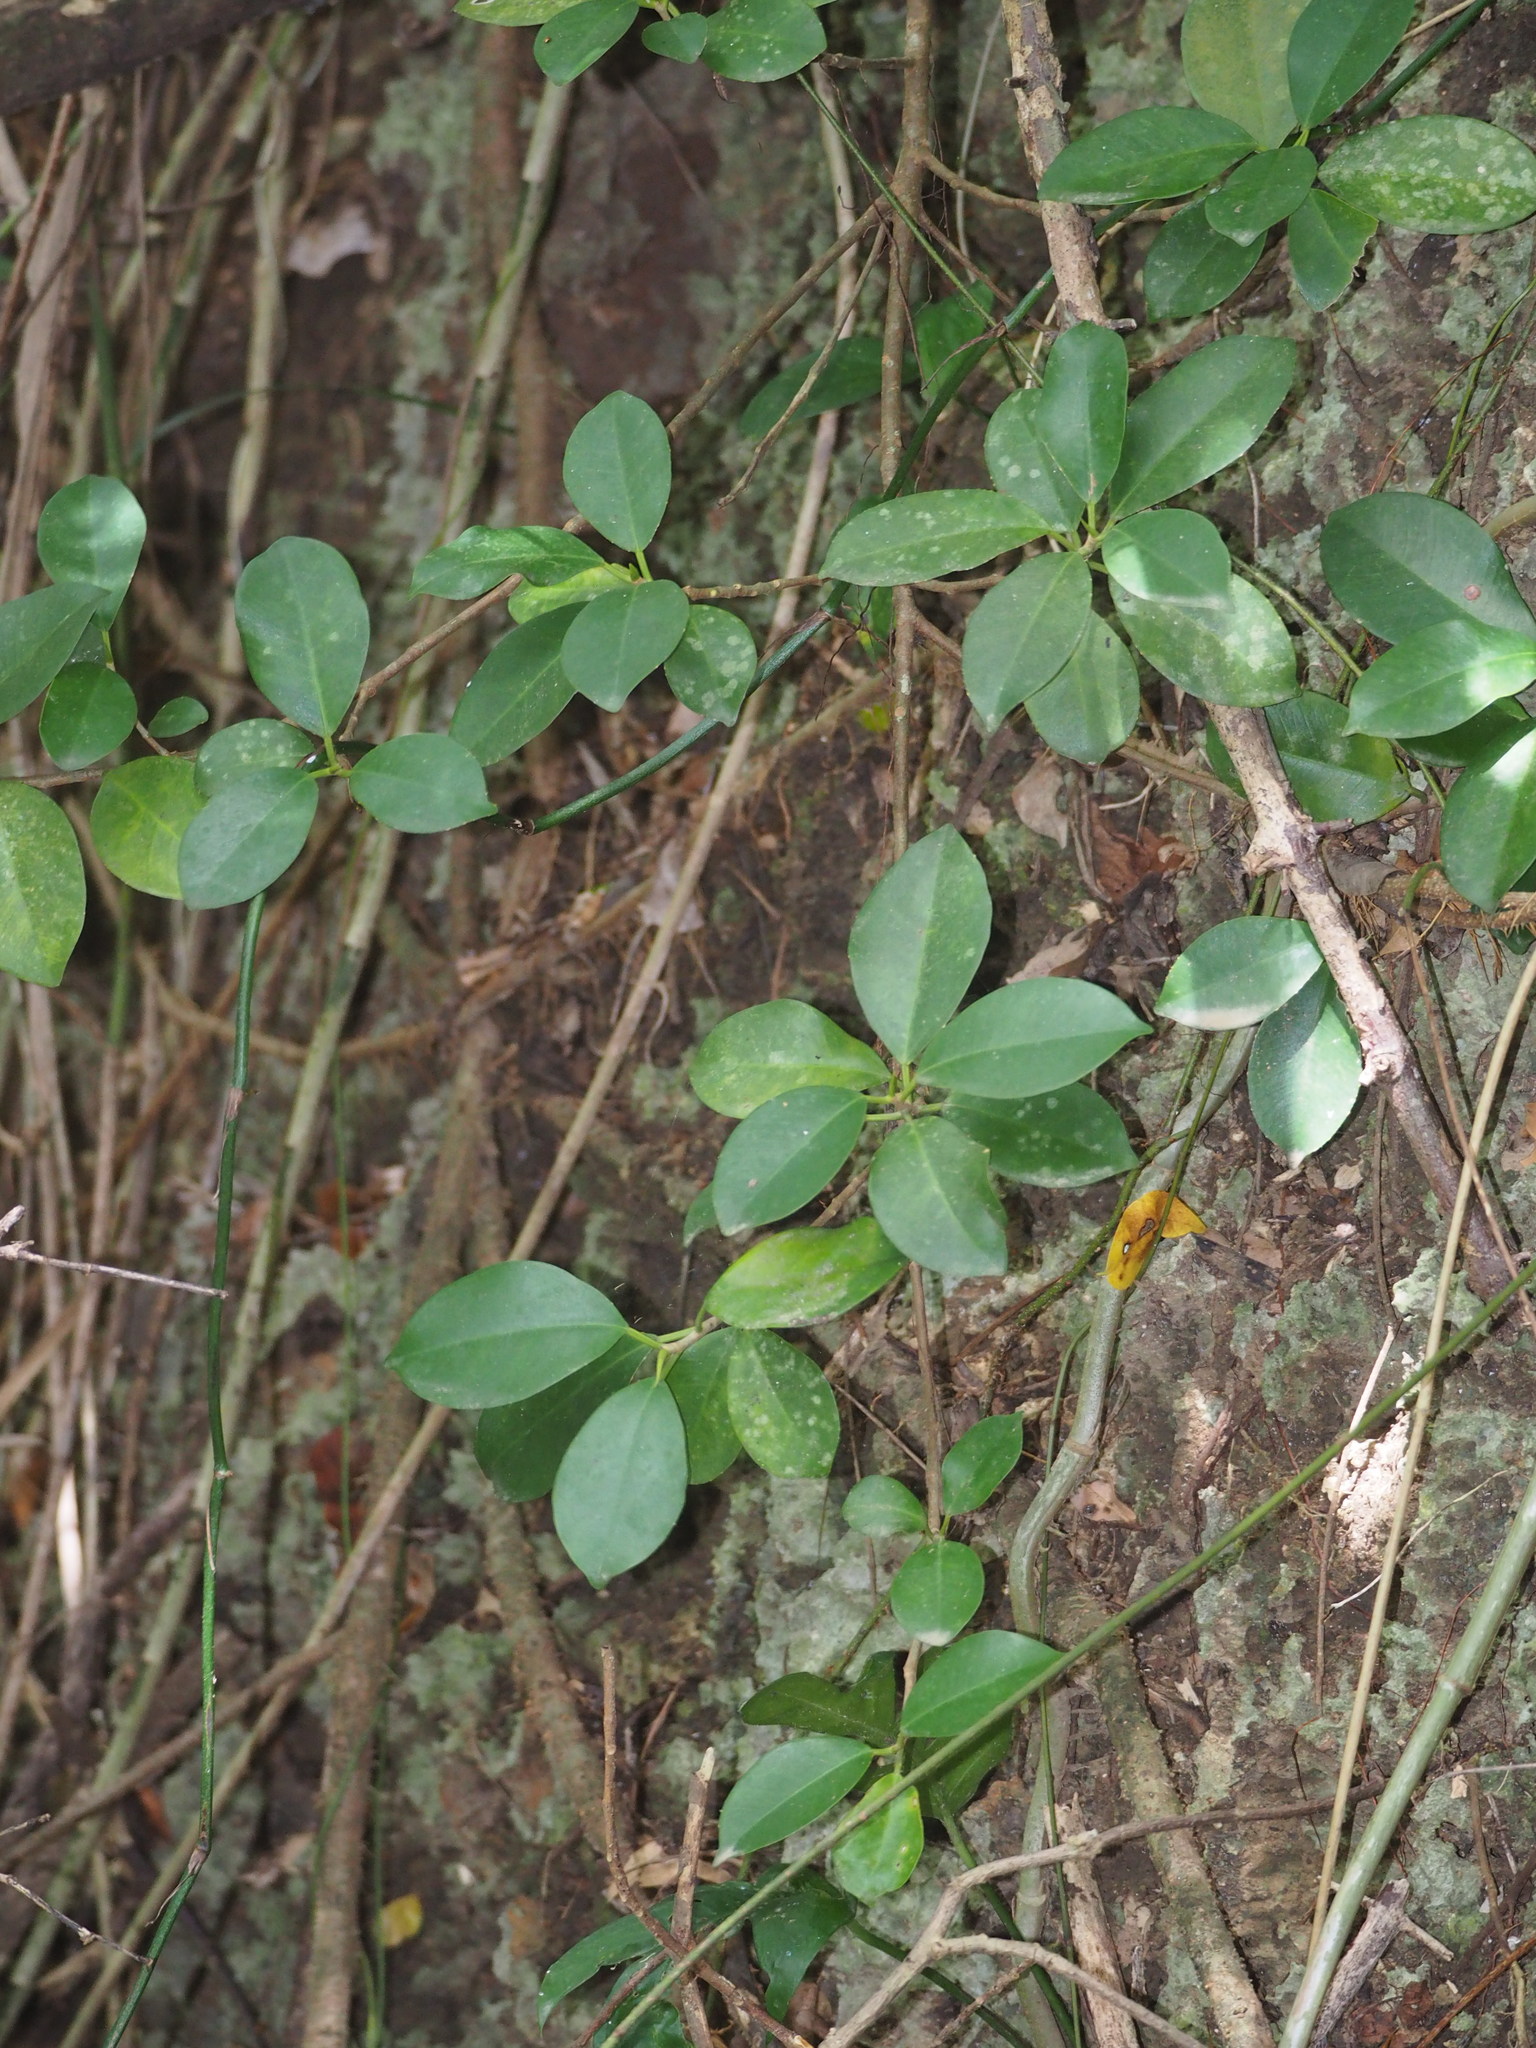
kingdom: Plantae
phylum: Tracheophyta
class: Magnoliopsida
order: Rosales
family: Moraceae
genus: Ficus
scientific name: Ficus microcarpa
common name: Chinese banyan
